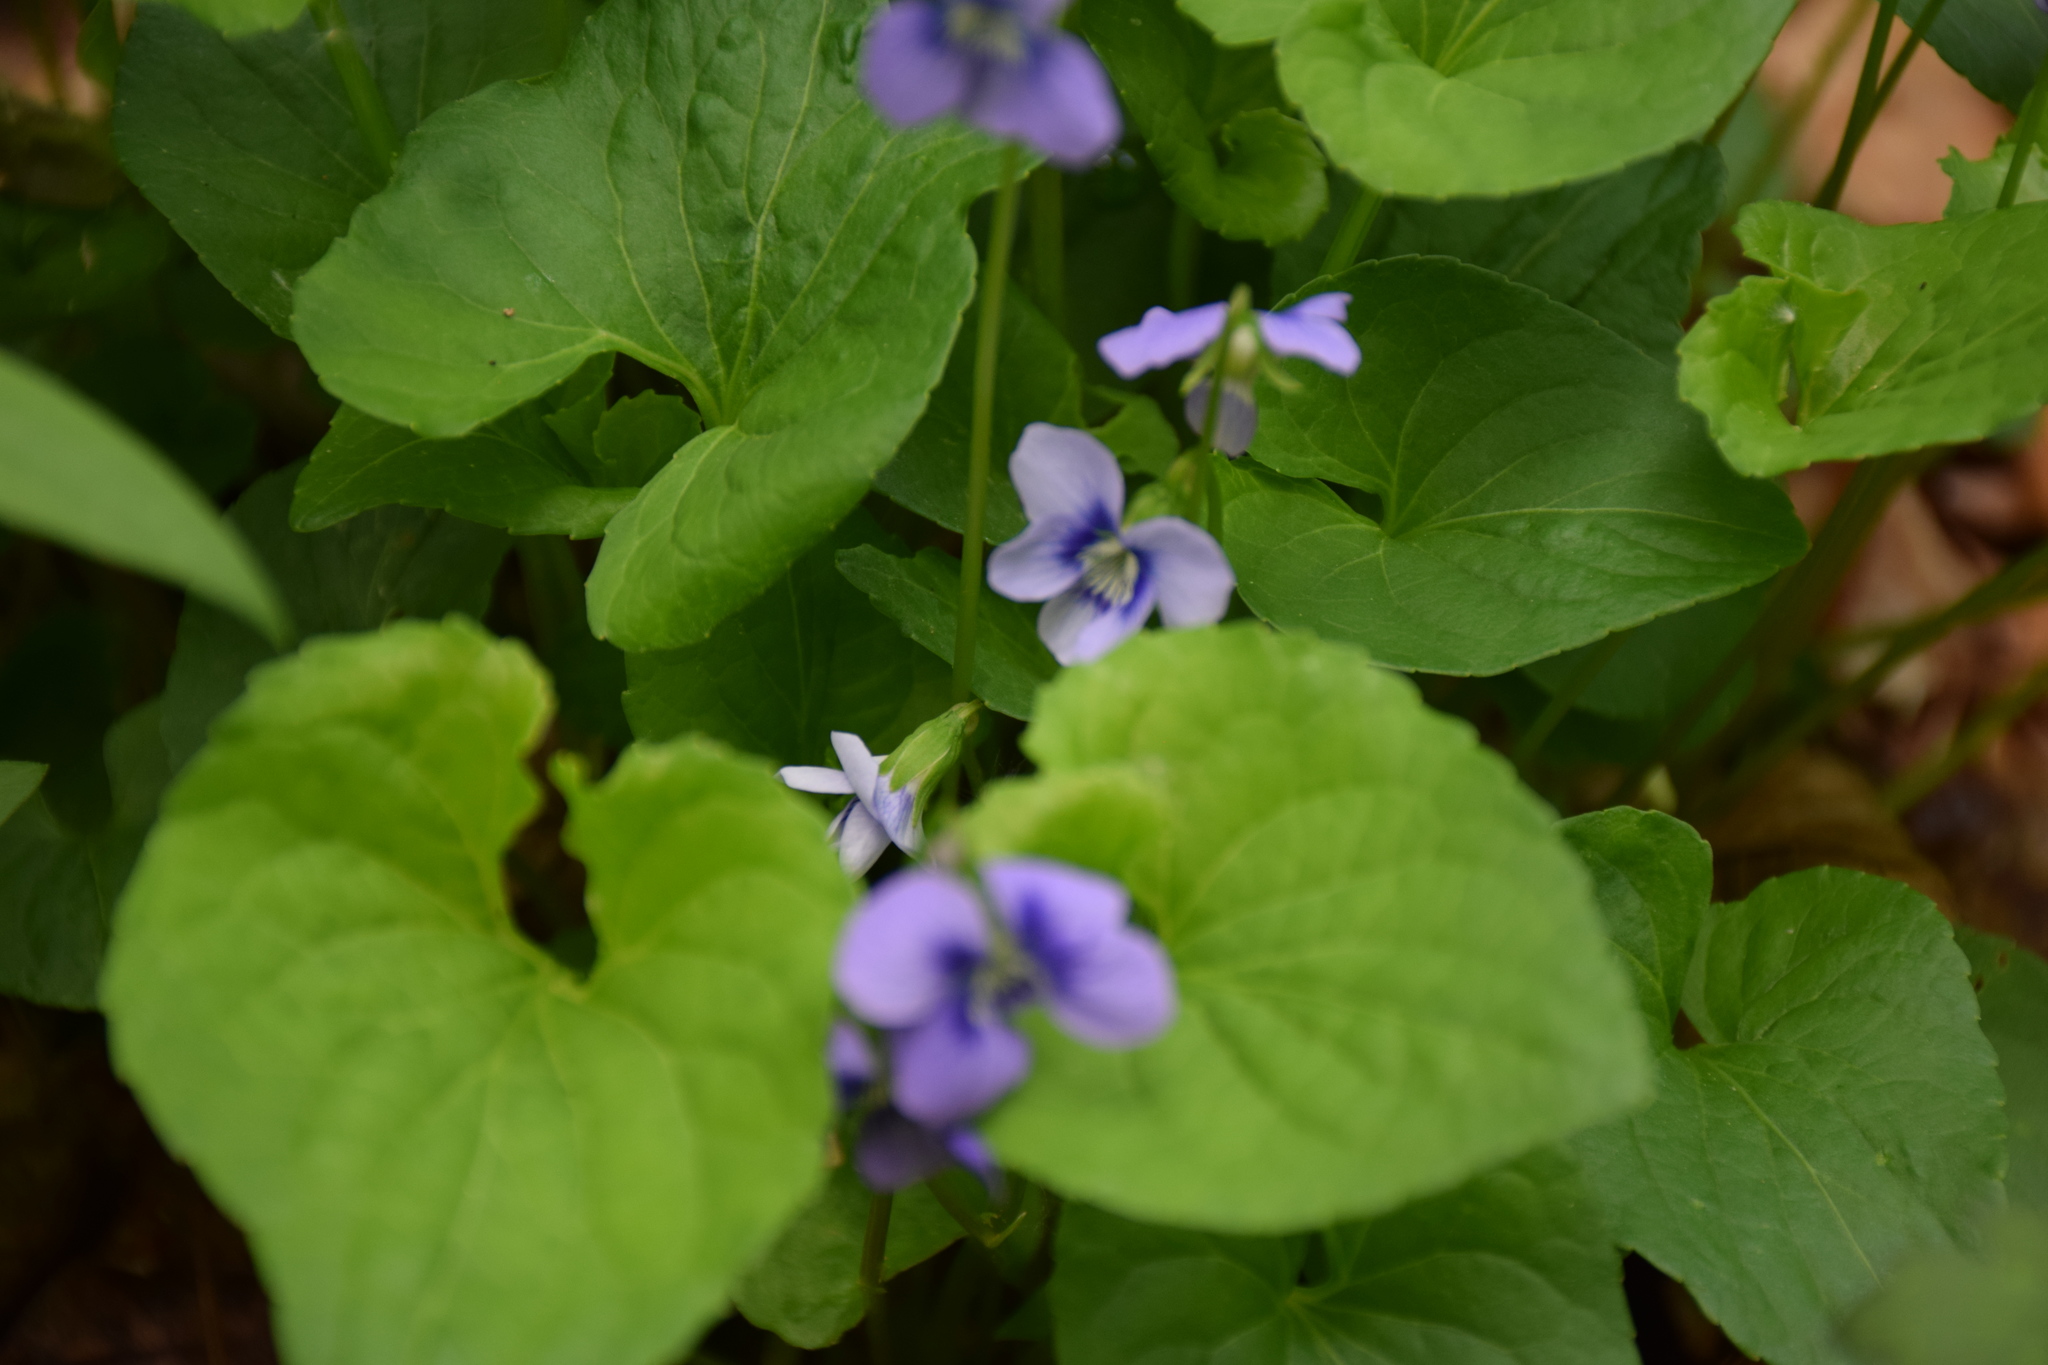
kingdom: Plantae
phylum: Tracheophyta
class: Magnoliopsida
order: Malpighiales
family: Violaceae
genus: Viola
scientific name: Viola cucullata
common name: Marsh blue violet
